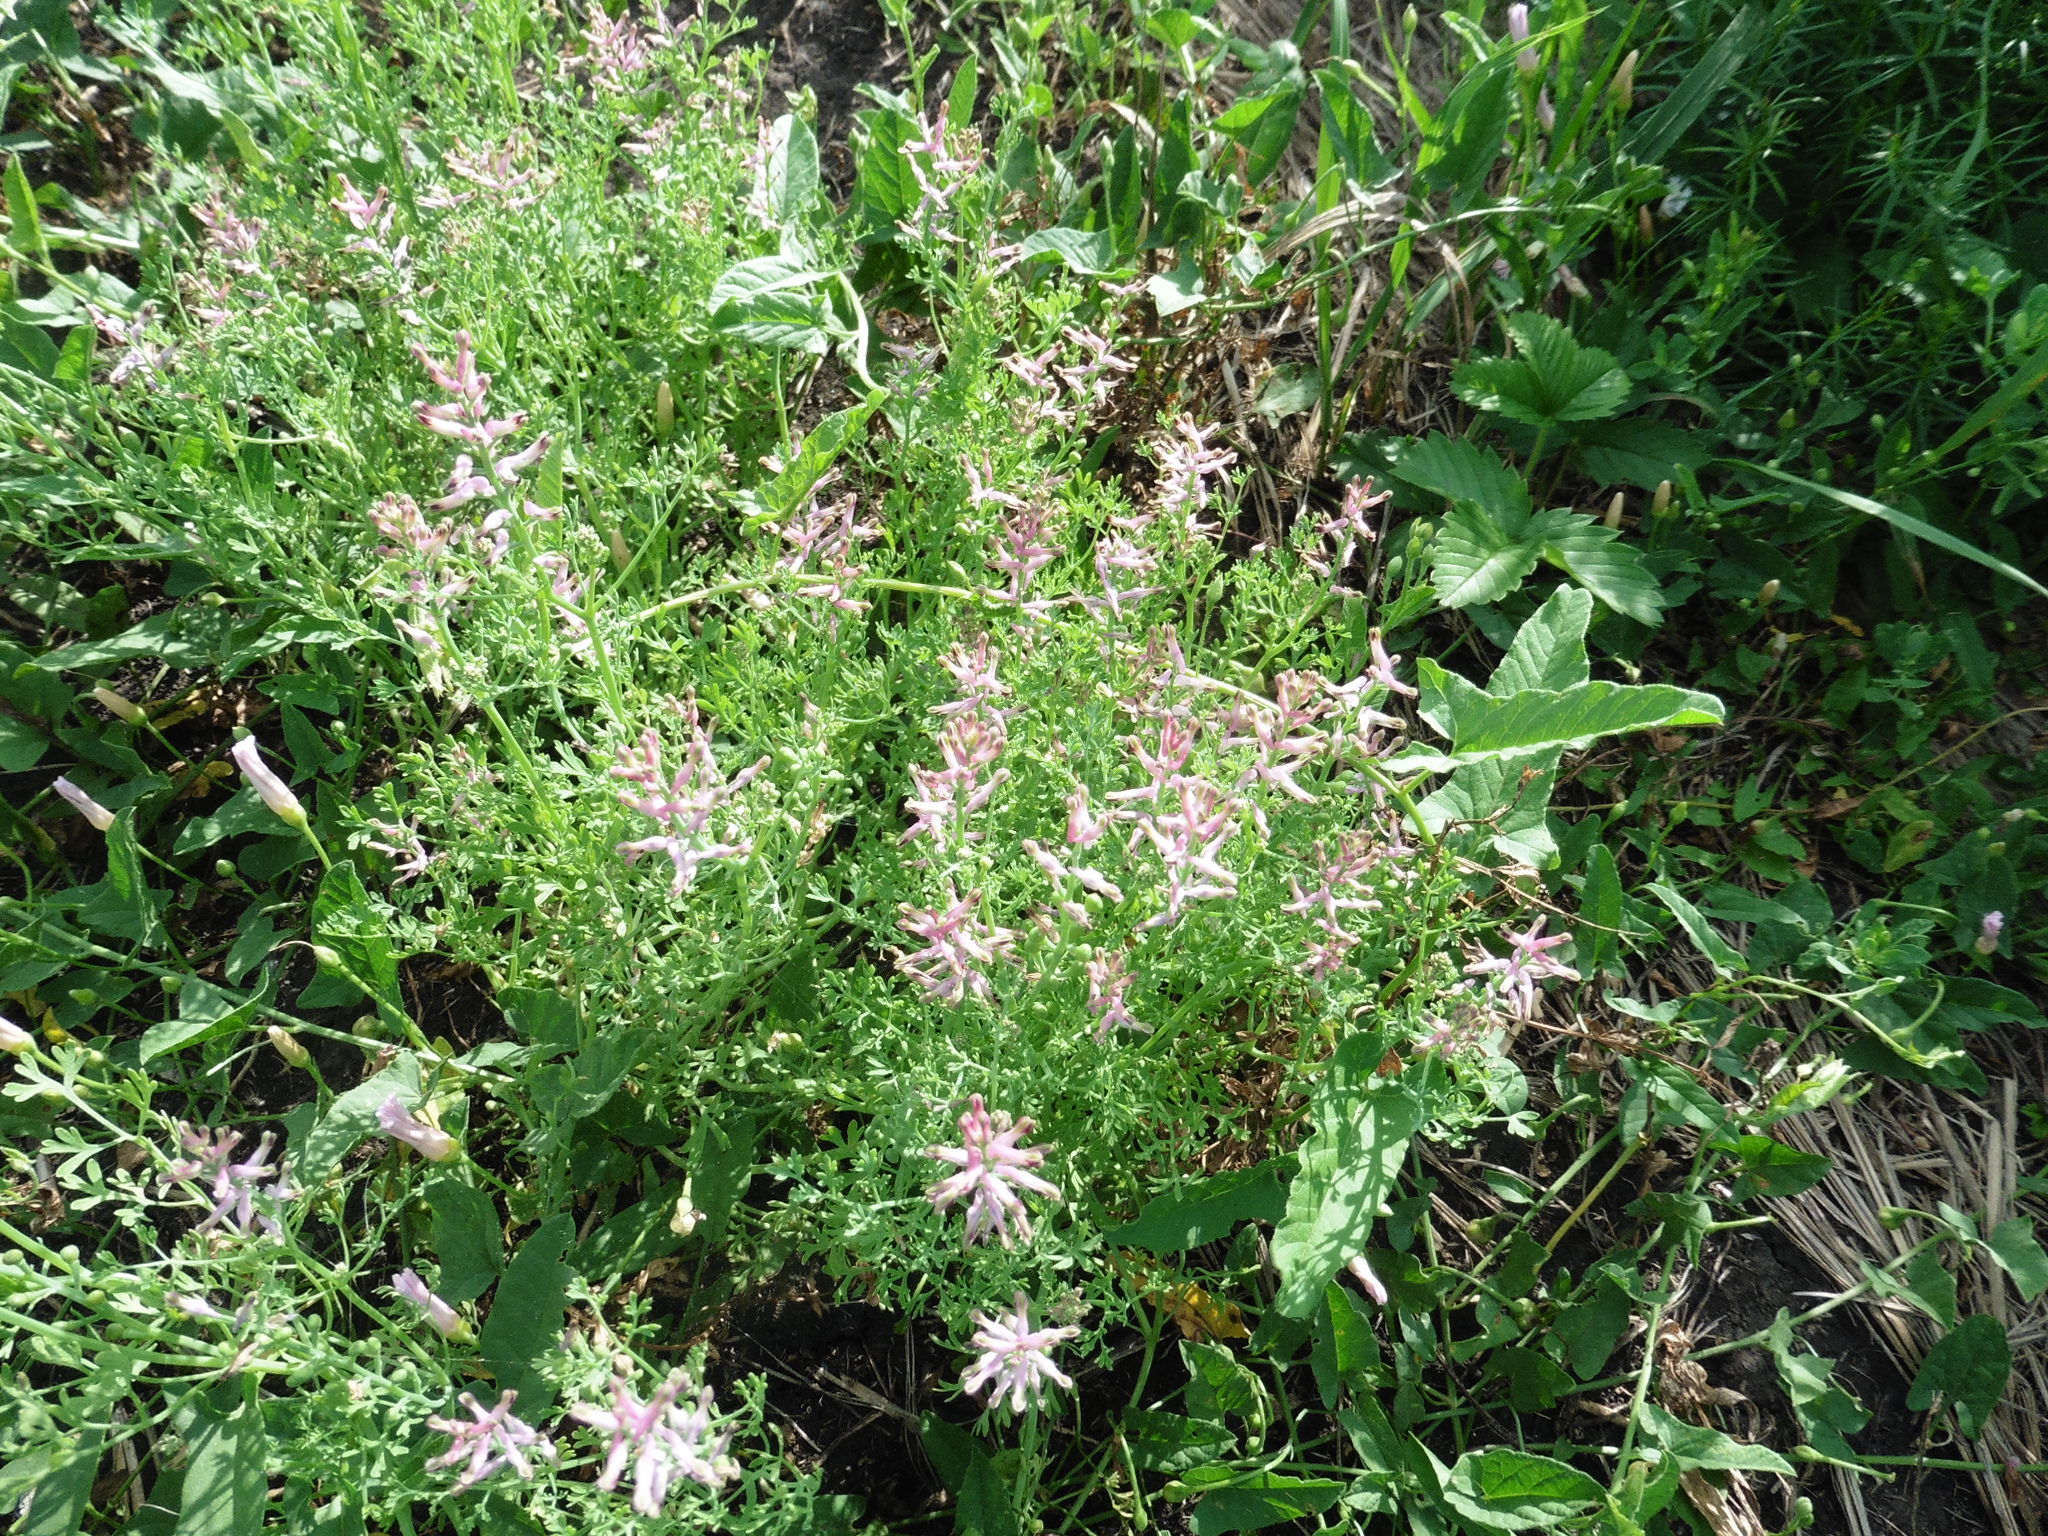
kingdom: Plantae
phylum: Tracheophyta
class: Magnoliopsida
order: Ranunculales
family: Papaveraceae
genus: Fumaria
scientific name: Fumaria officinalis
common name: Common fumitory
